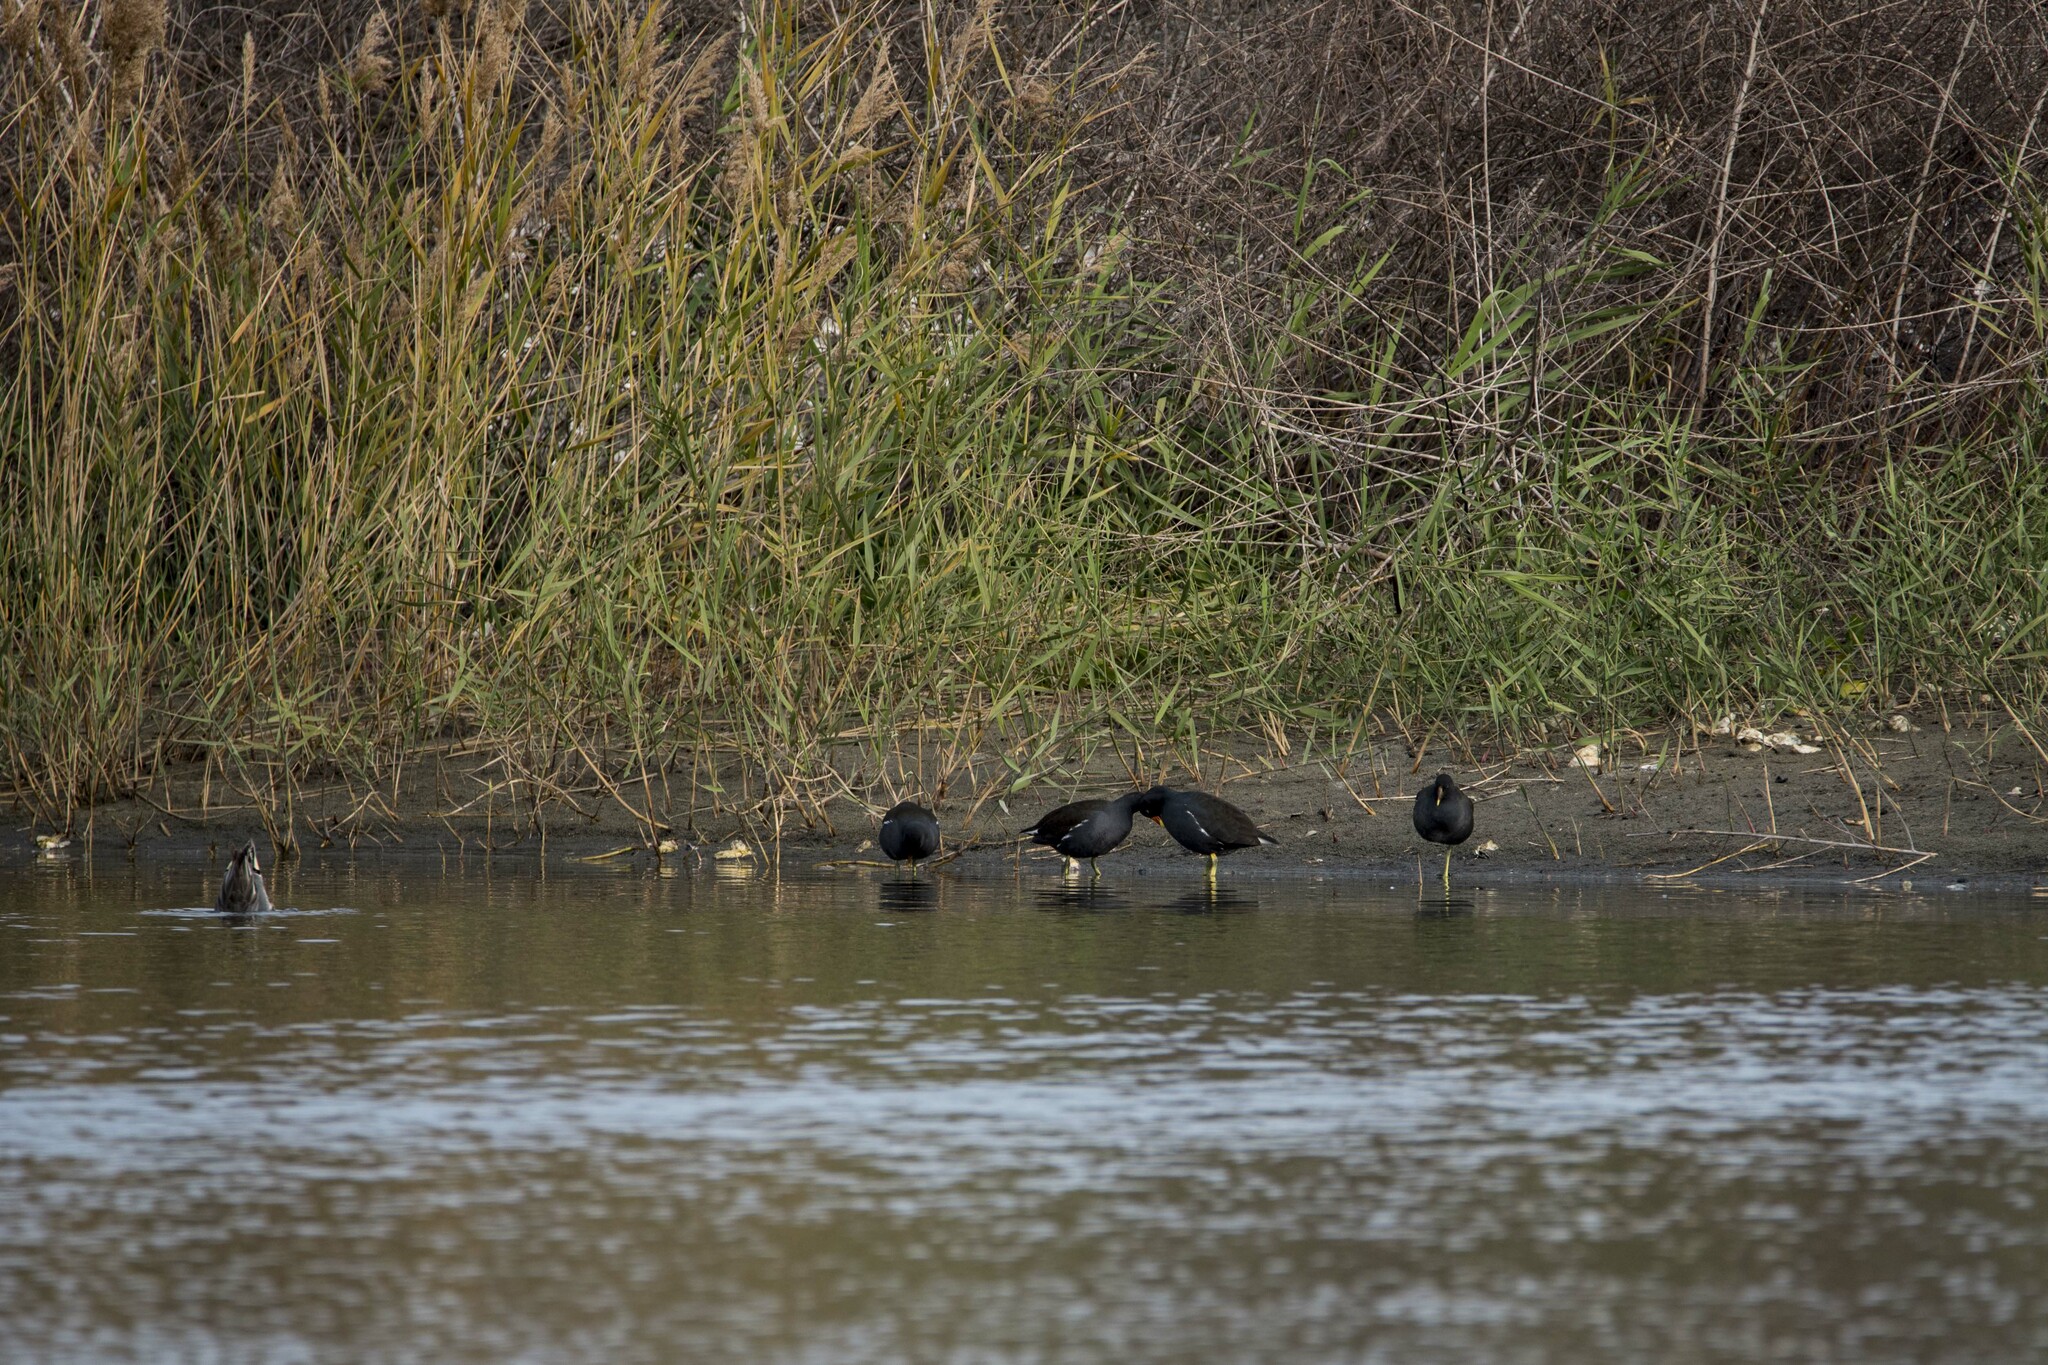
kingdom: Animalia
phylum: Chordata
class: Aves
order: Gruiformes
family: Rallidae
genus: Gallinula
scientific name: Gallinula chloropus
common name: Common moorhen
